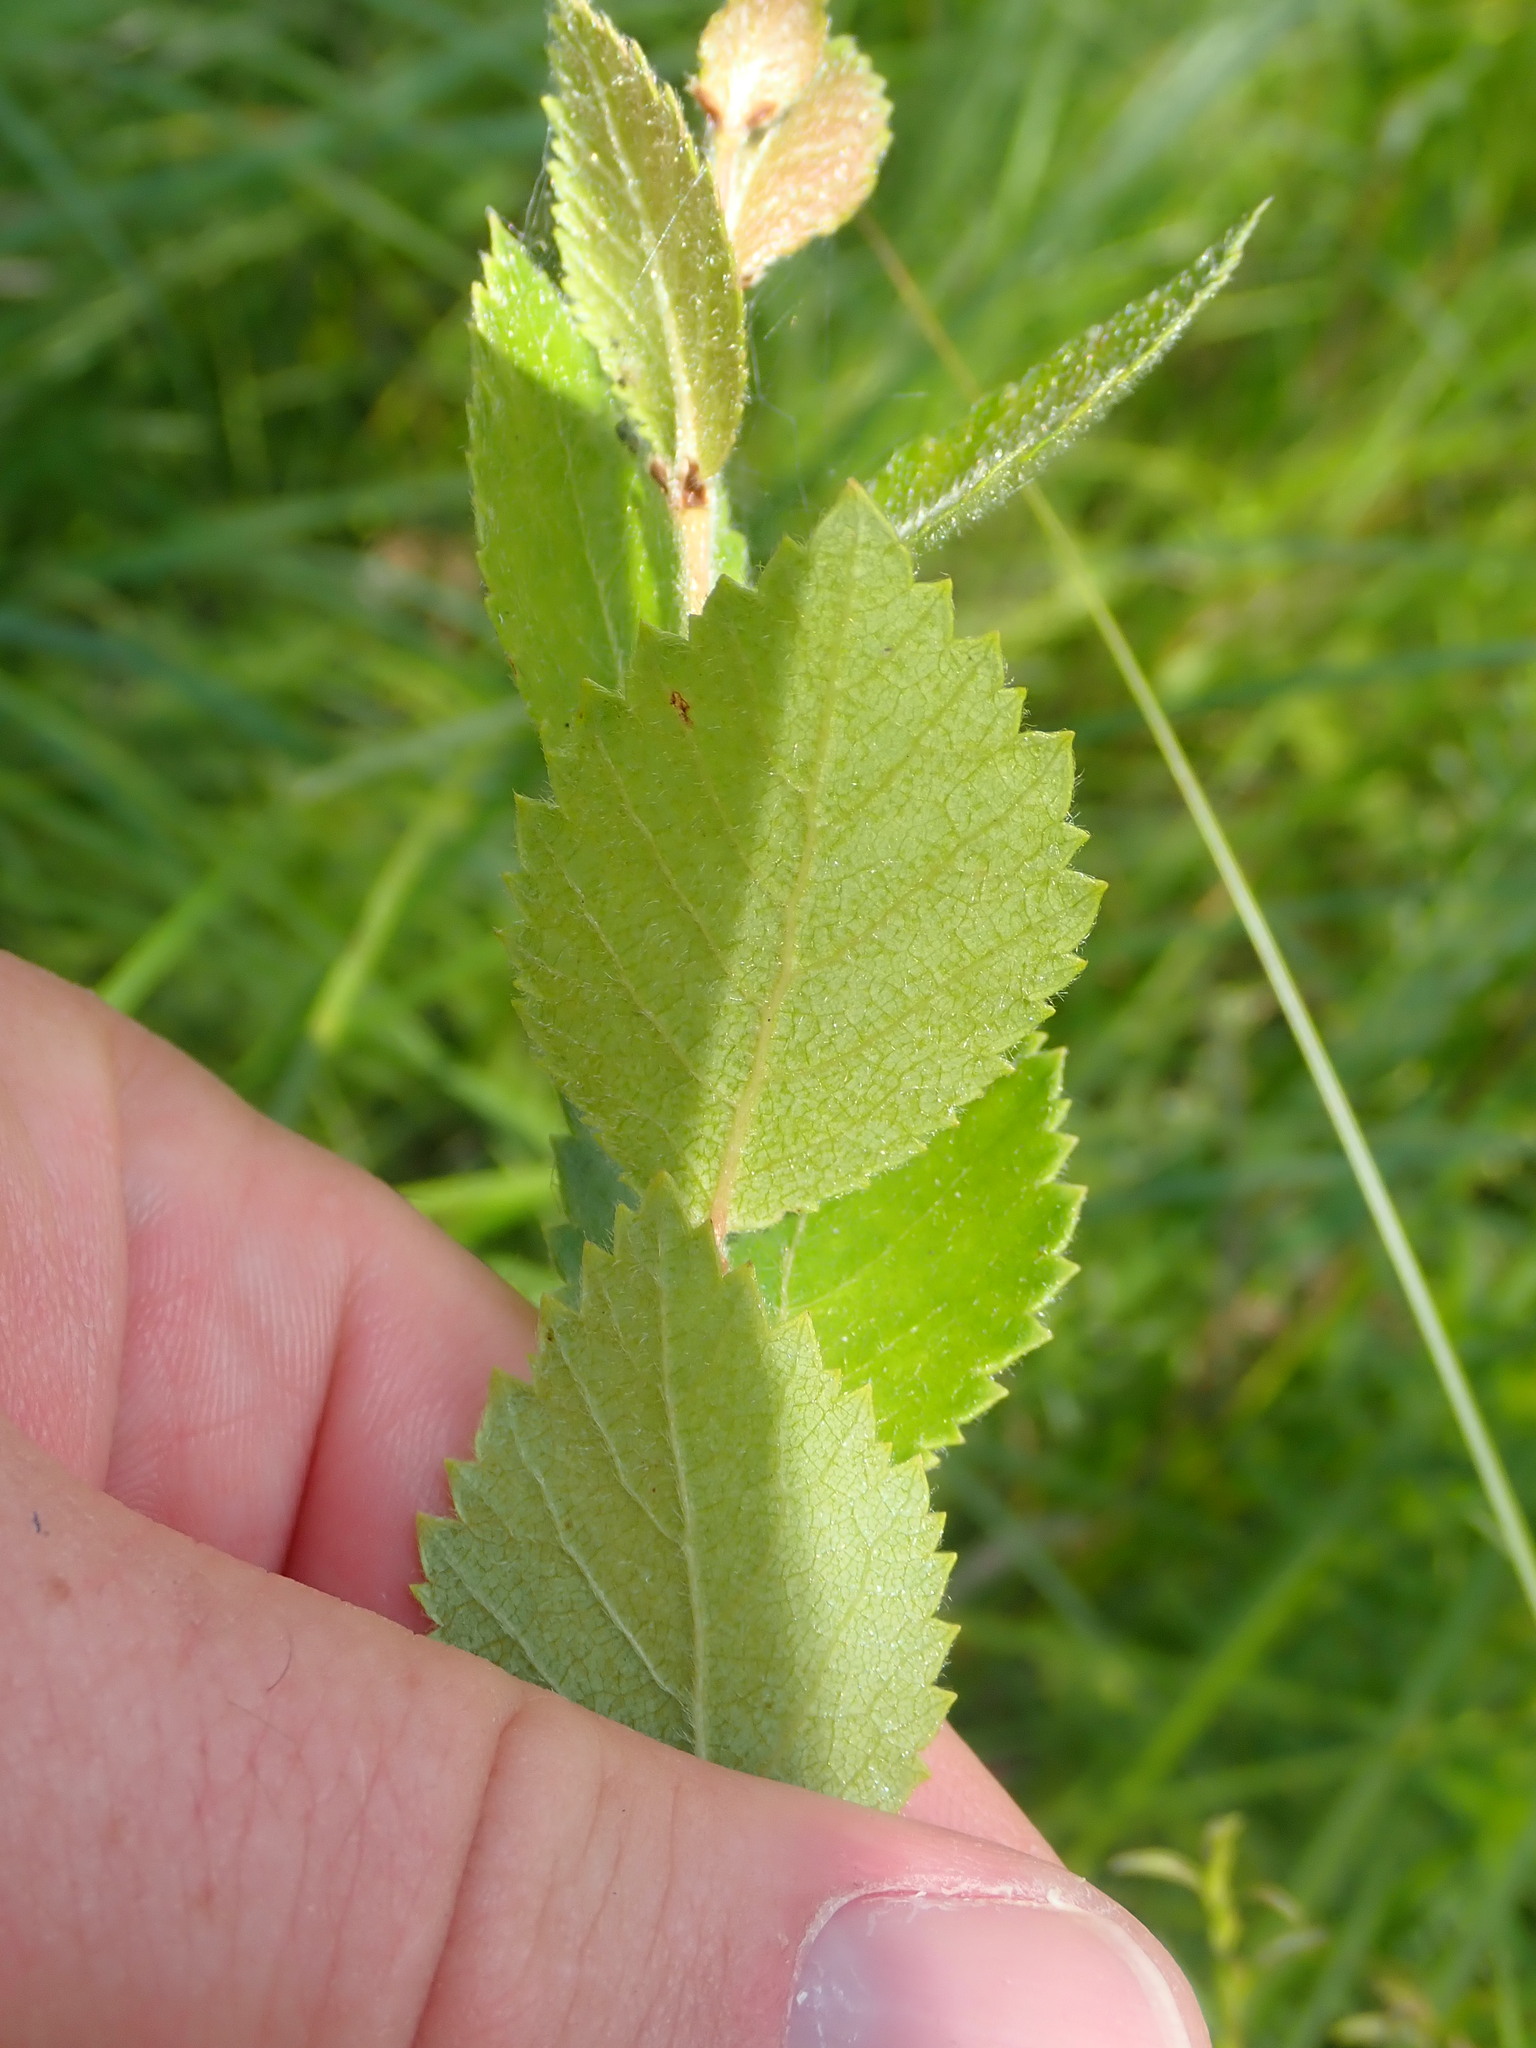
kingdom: Plantae
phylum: Tracheophyta
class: Magnoliopsida
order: Fagales
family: Betulaceae
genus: Betula
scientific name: Betula pumila
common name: Bog birch
